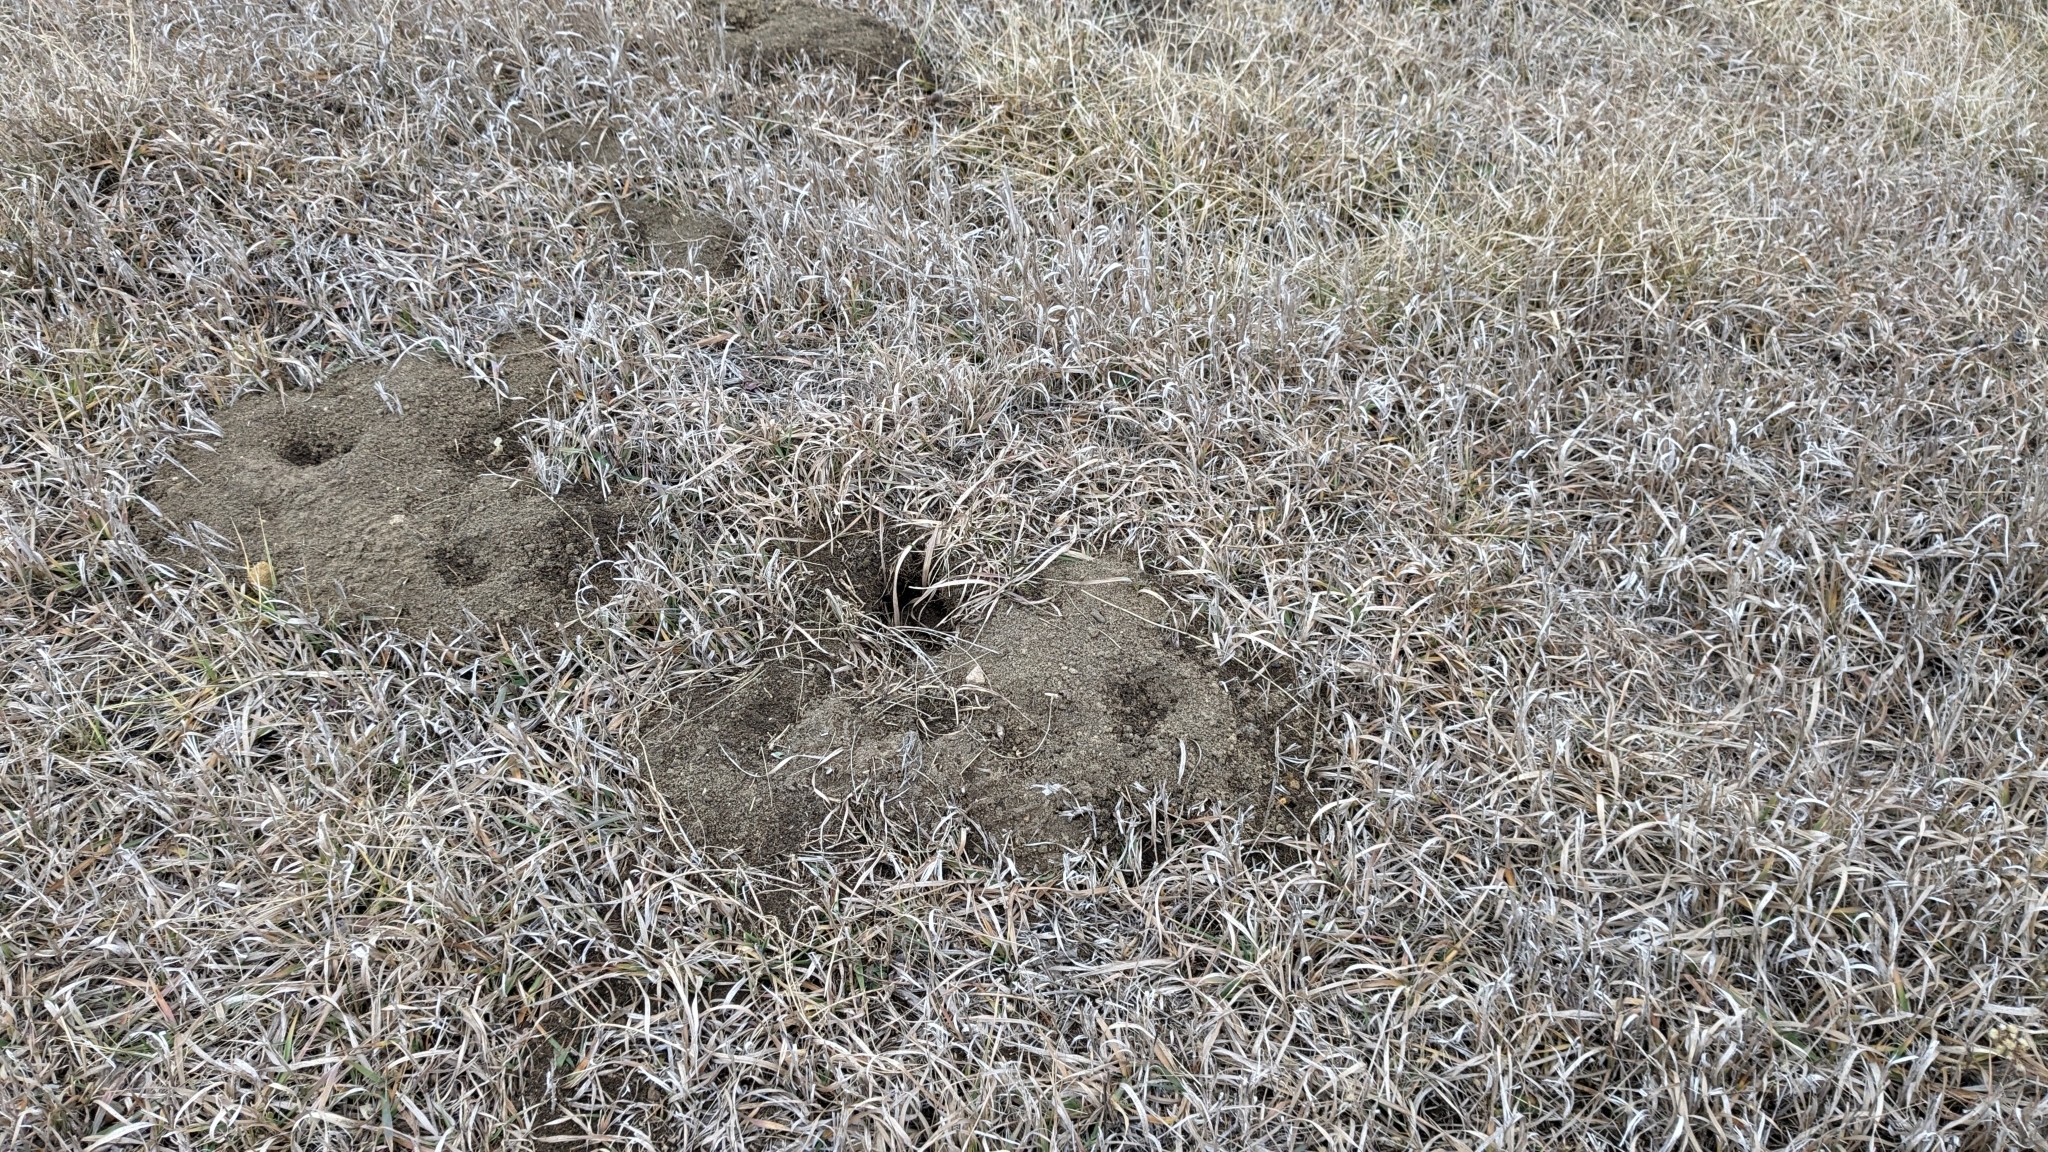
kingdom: Animalia
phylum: Chordata
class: Mammalia
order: Rodentia
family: Geomyidae
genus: Geomys
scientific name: Geomys bursarius
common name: Plains pocket gopher
